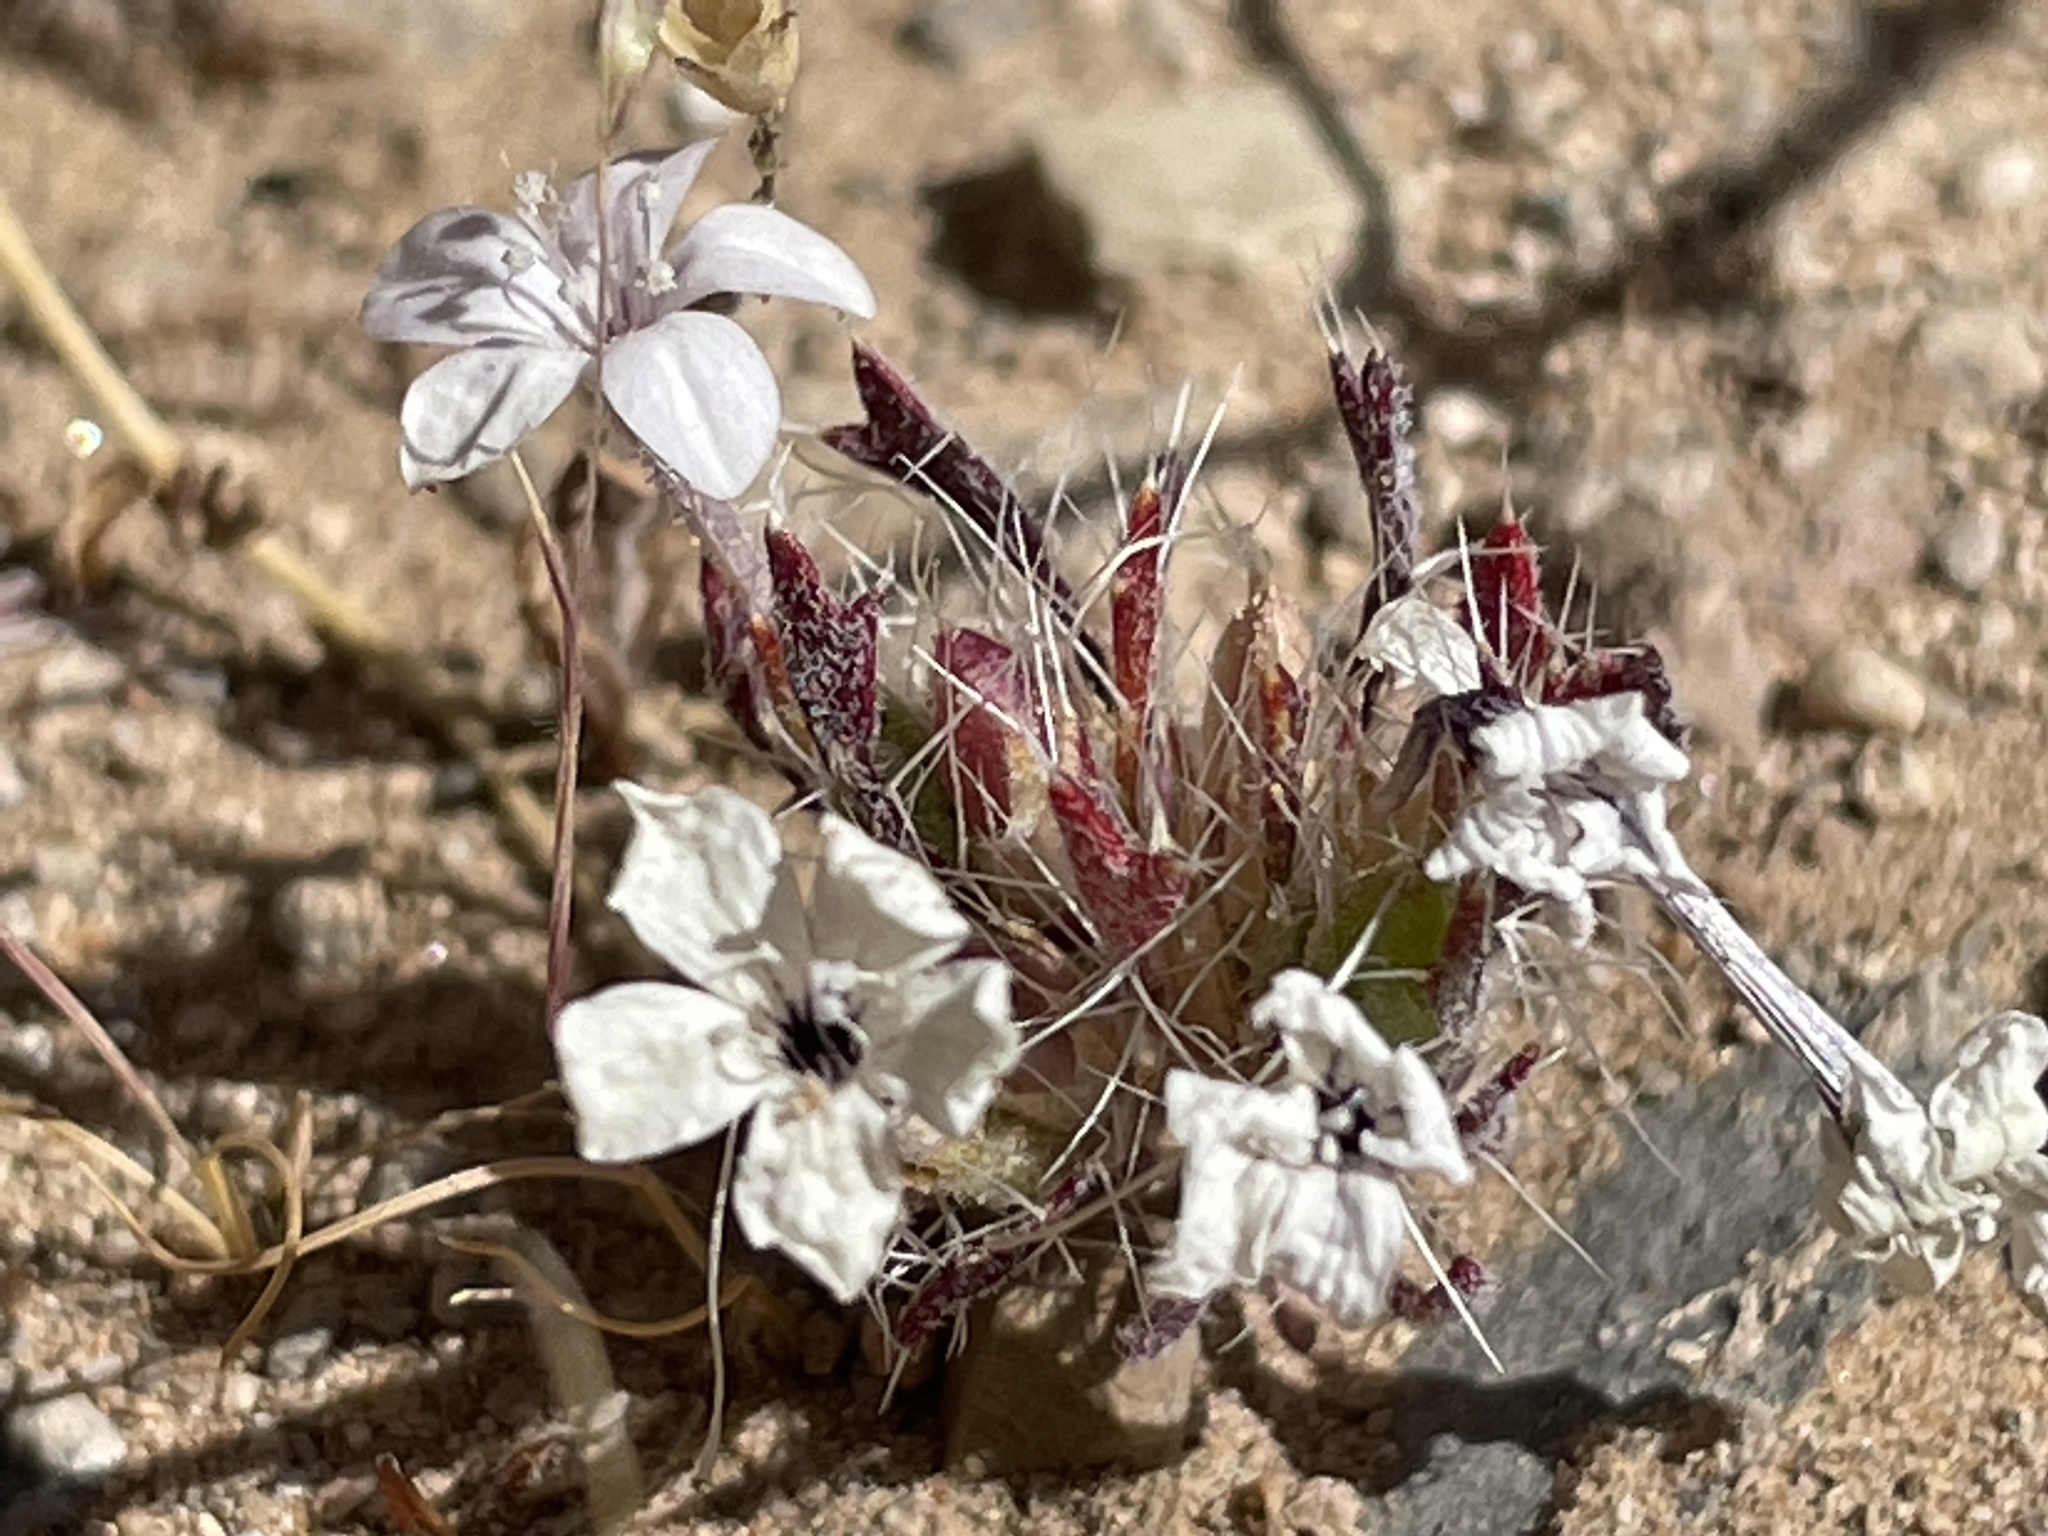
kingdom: Plantae
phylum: Tracheophyta
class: Magnoliopsida
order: Ericales
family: Polemoniaceae
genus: Langloisia
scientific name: Langloisia setosissima
